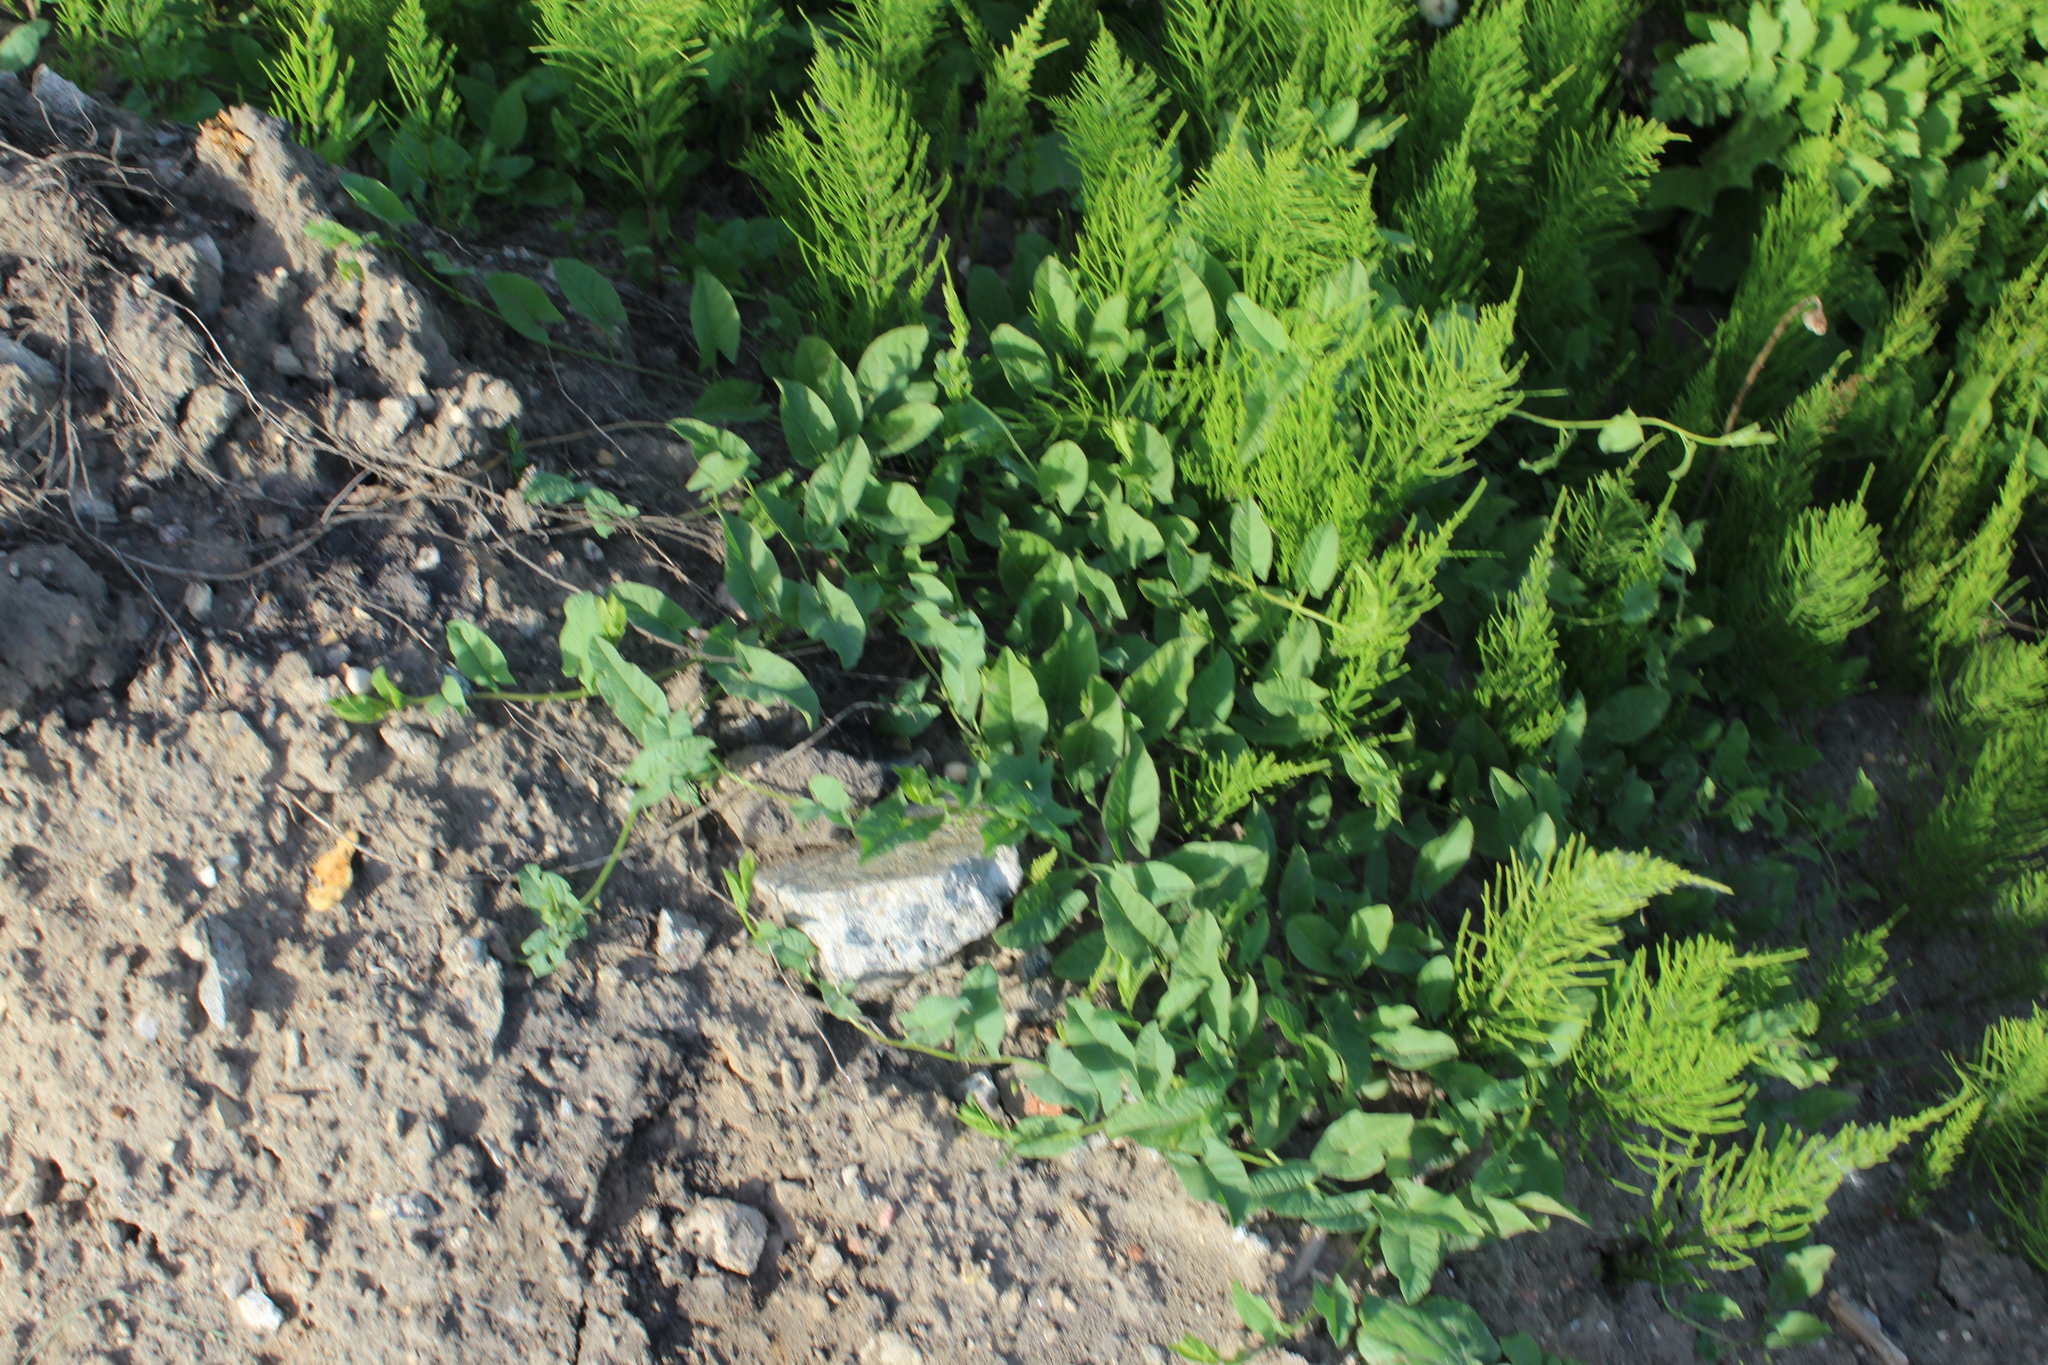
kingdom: Plantae
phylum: Tracheophyta
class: Magnoliopsida
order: Solanales
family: Convolvulaceae
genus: Convolvulus
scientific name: Convolvulus arvensis
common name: Field bindweed
